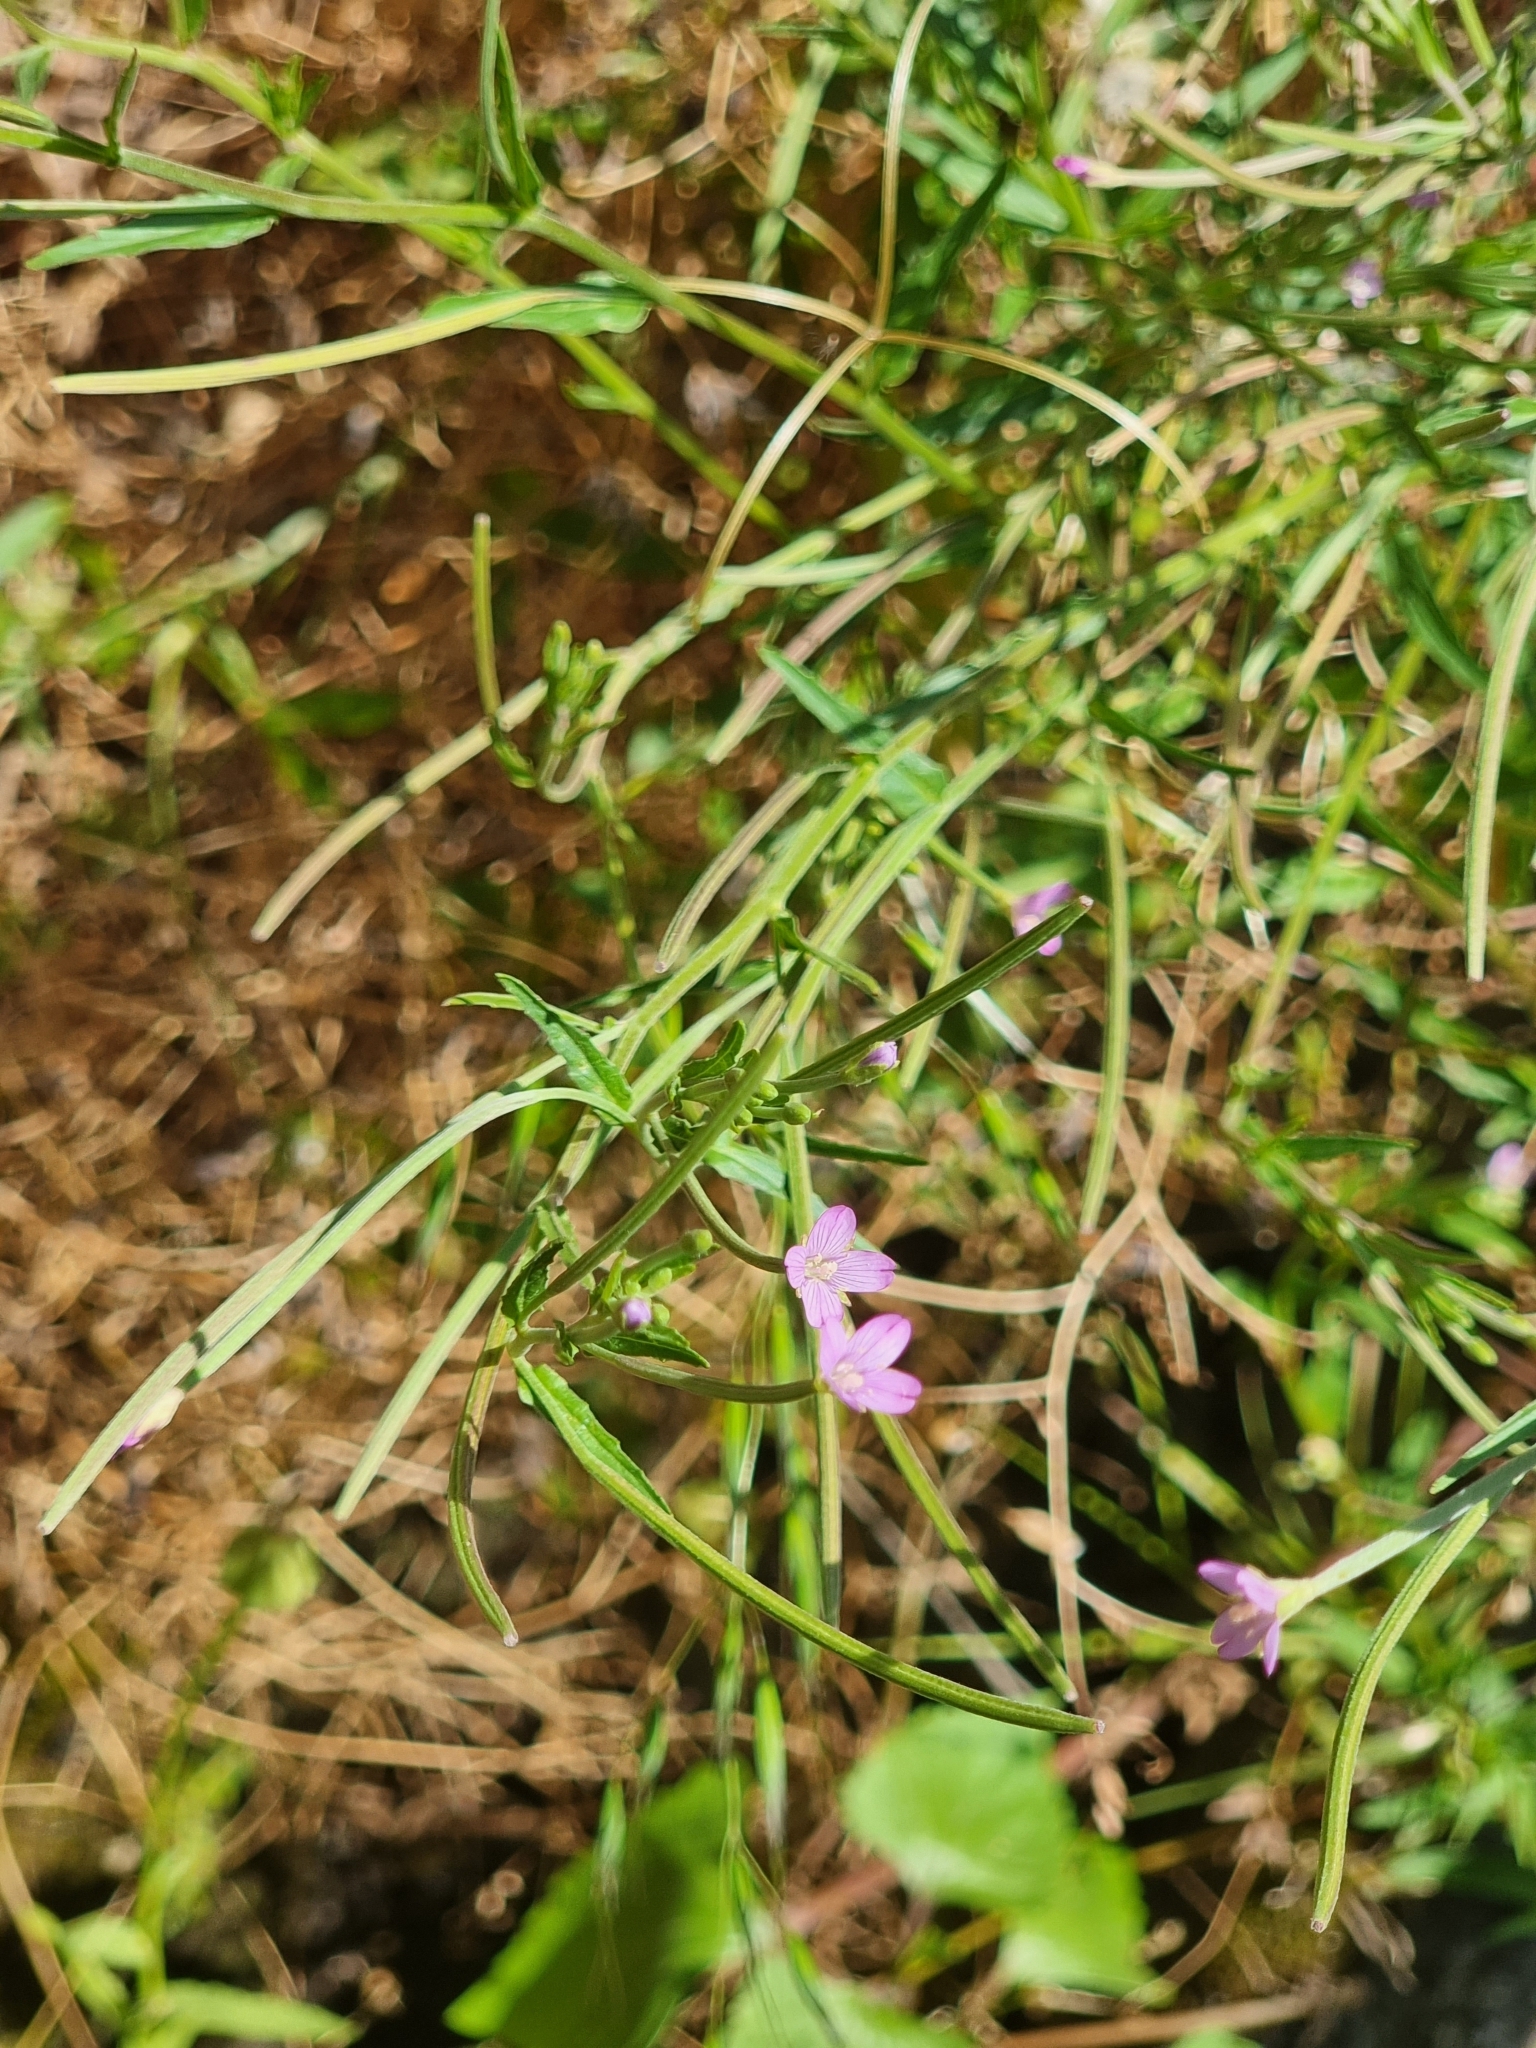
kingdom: Plantae
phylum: Tracheophyta
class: Magnoliopsida
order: Myrtales
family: Onagraceae
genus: Epilobium
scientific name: Epilobium obscurum
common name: Short-fruited willowherb
